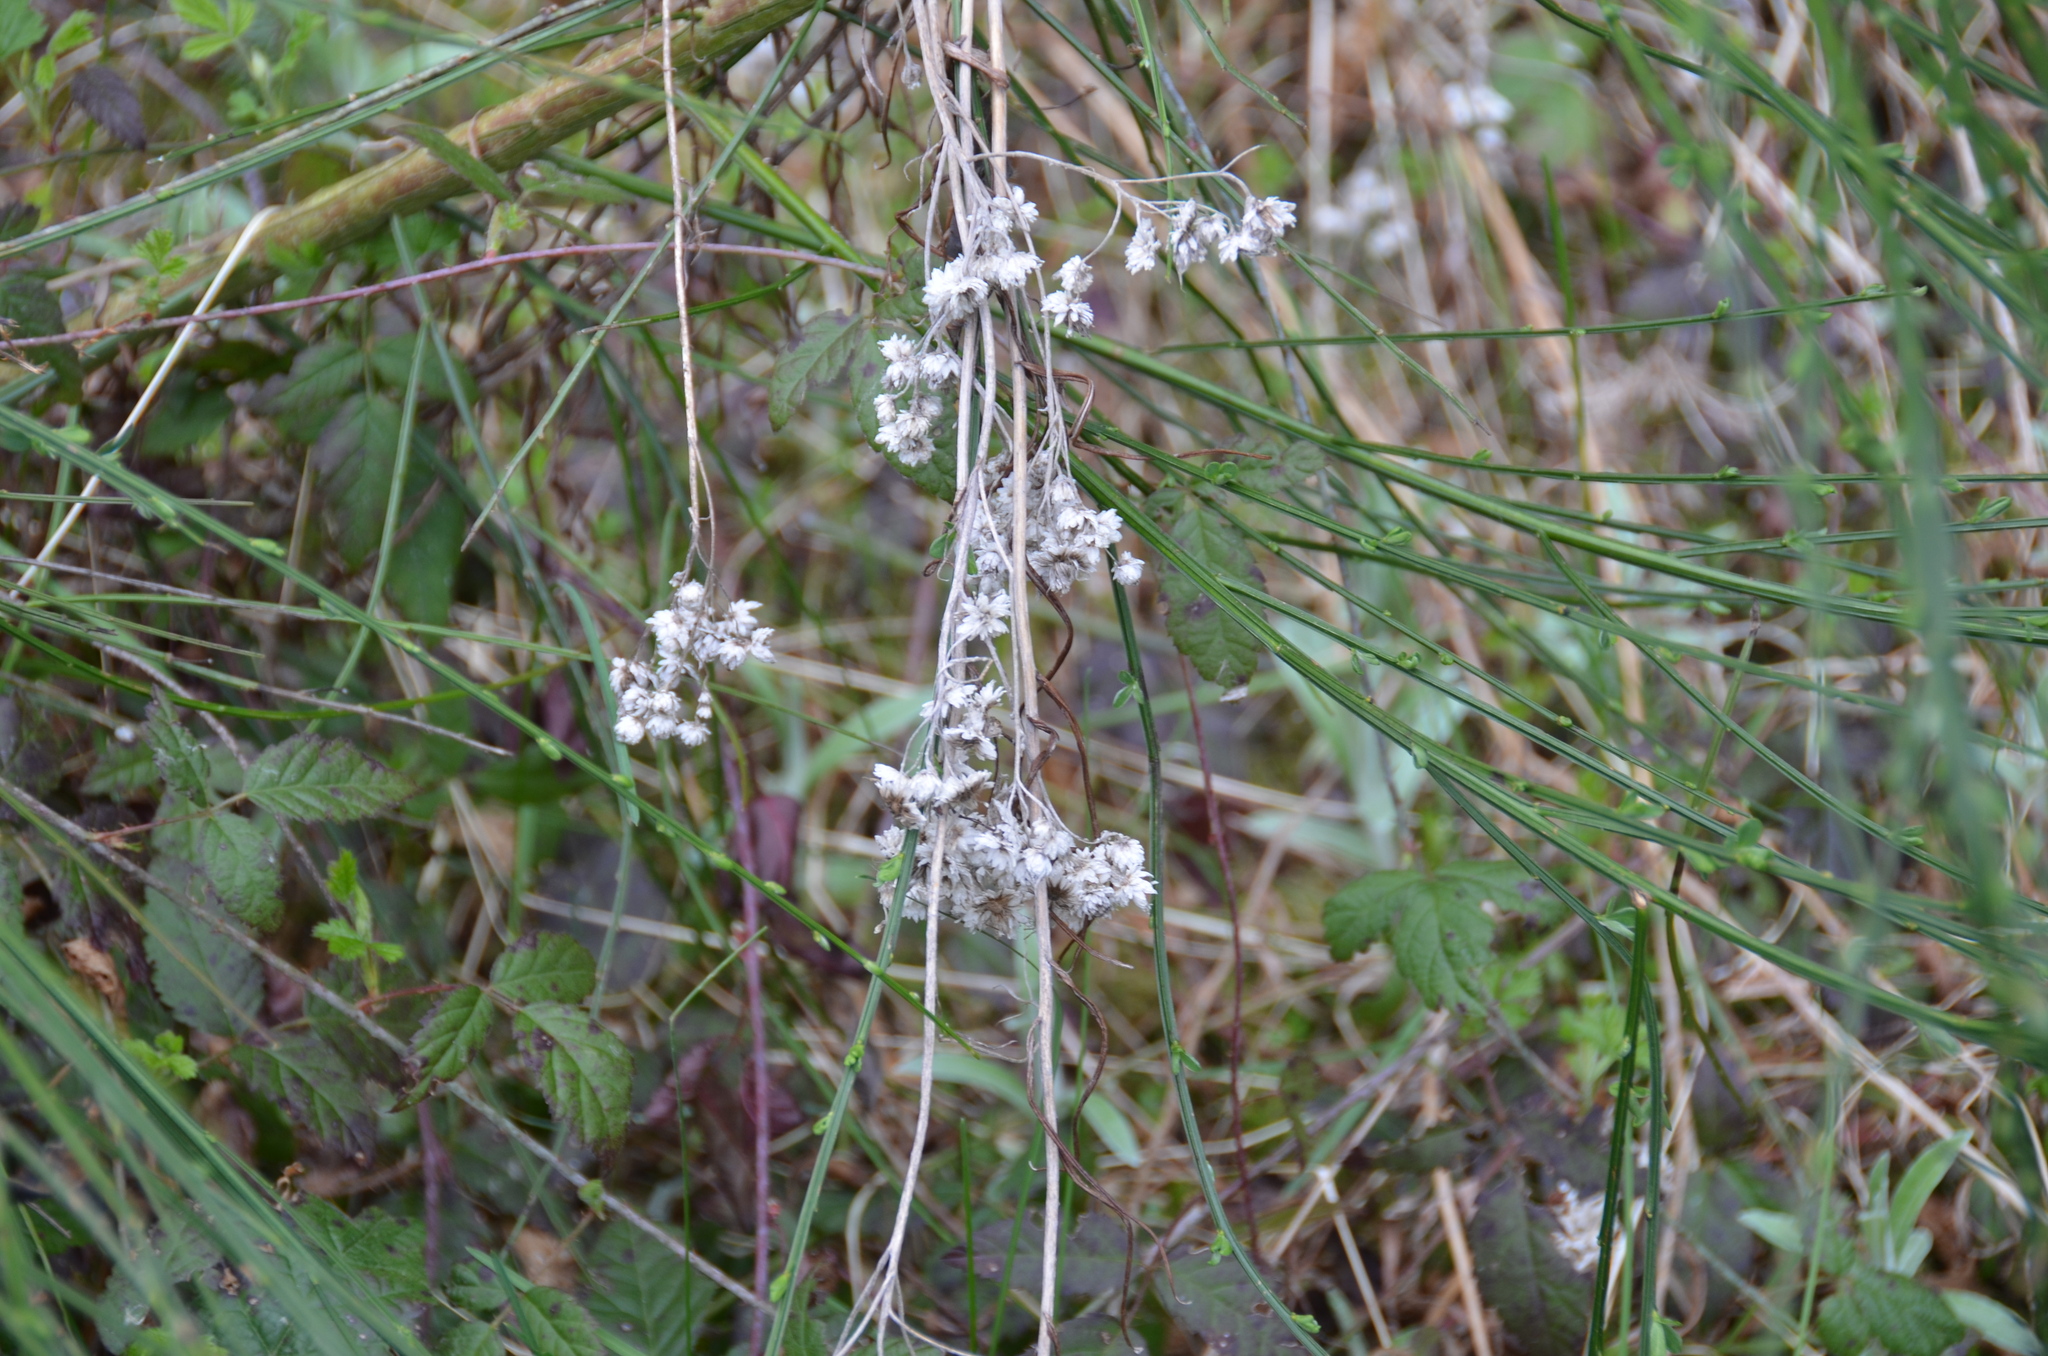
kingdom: Plantae
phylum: Tracheophyta
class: Magnoliopsida
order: Asterales
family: Asteraceae
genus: Anaphalis
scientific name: Anaphalis margaritacea
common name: Pearly everlasting
